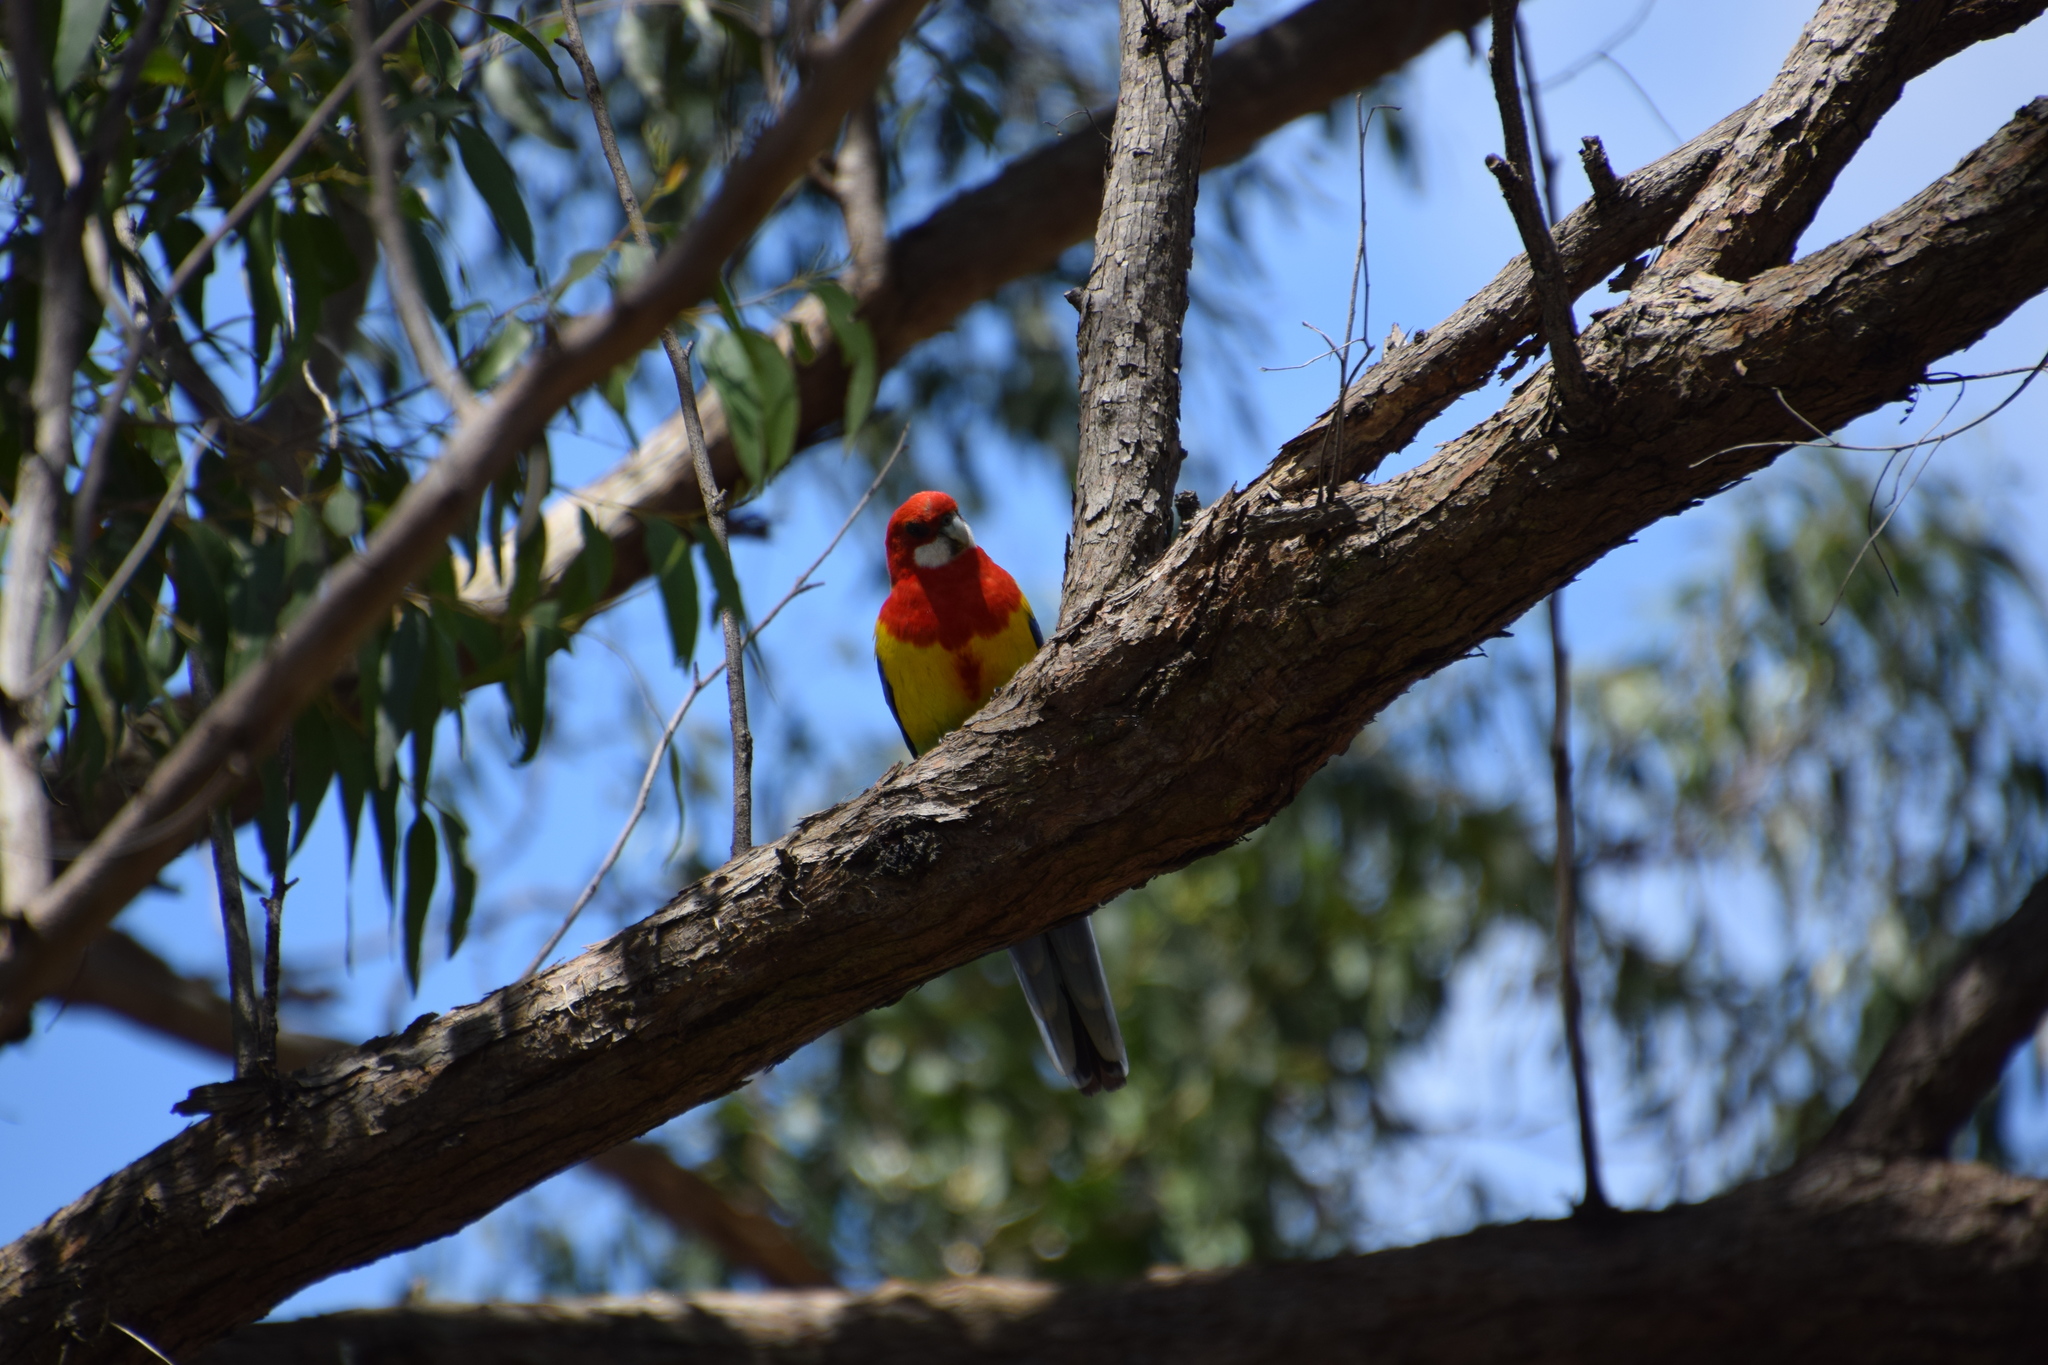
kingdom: Animalia
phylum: Chordata
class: Aves
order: Psittaciformes
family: Psittacidae
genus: Platycercus
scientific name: Platycercus eximius
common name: Eastern rosella
